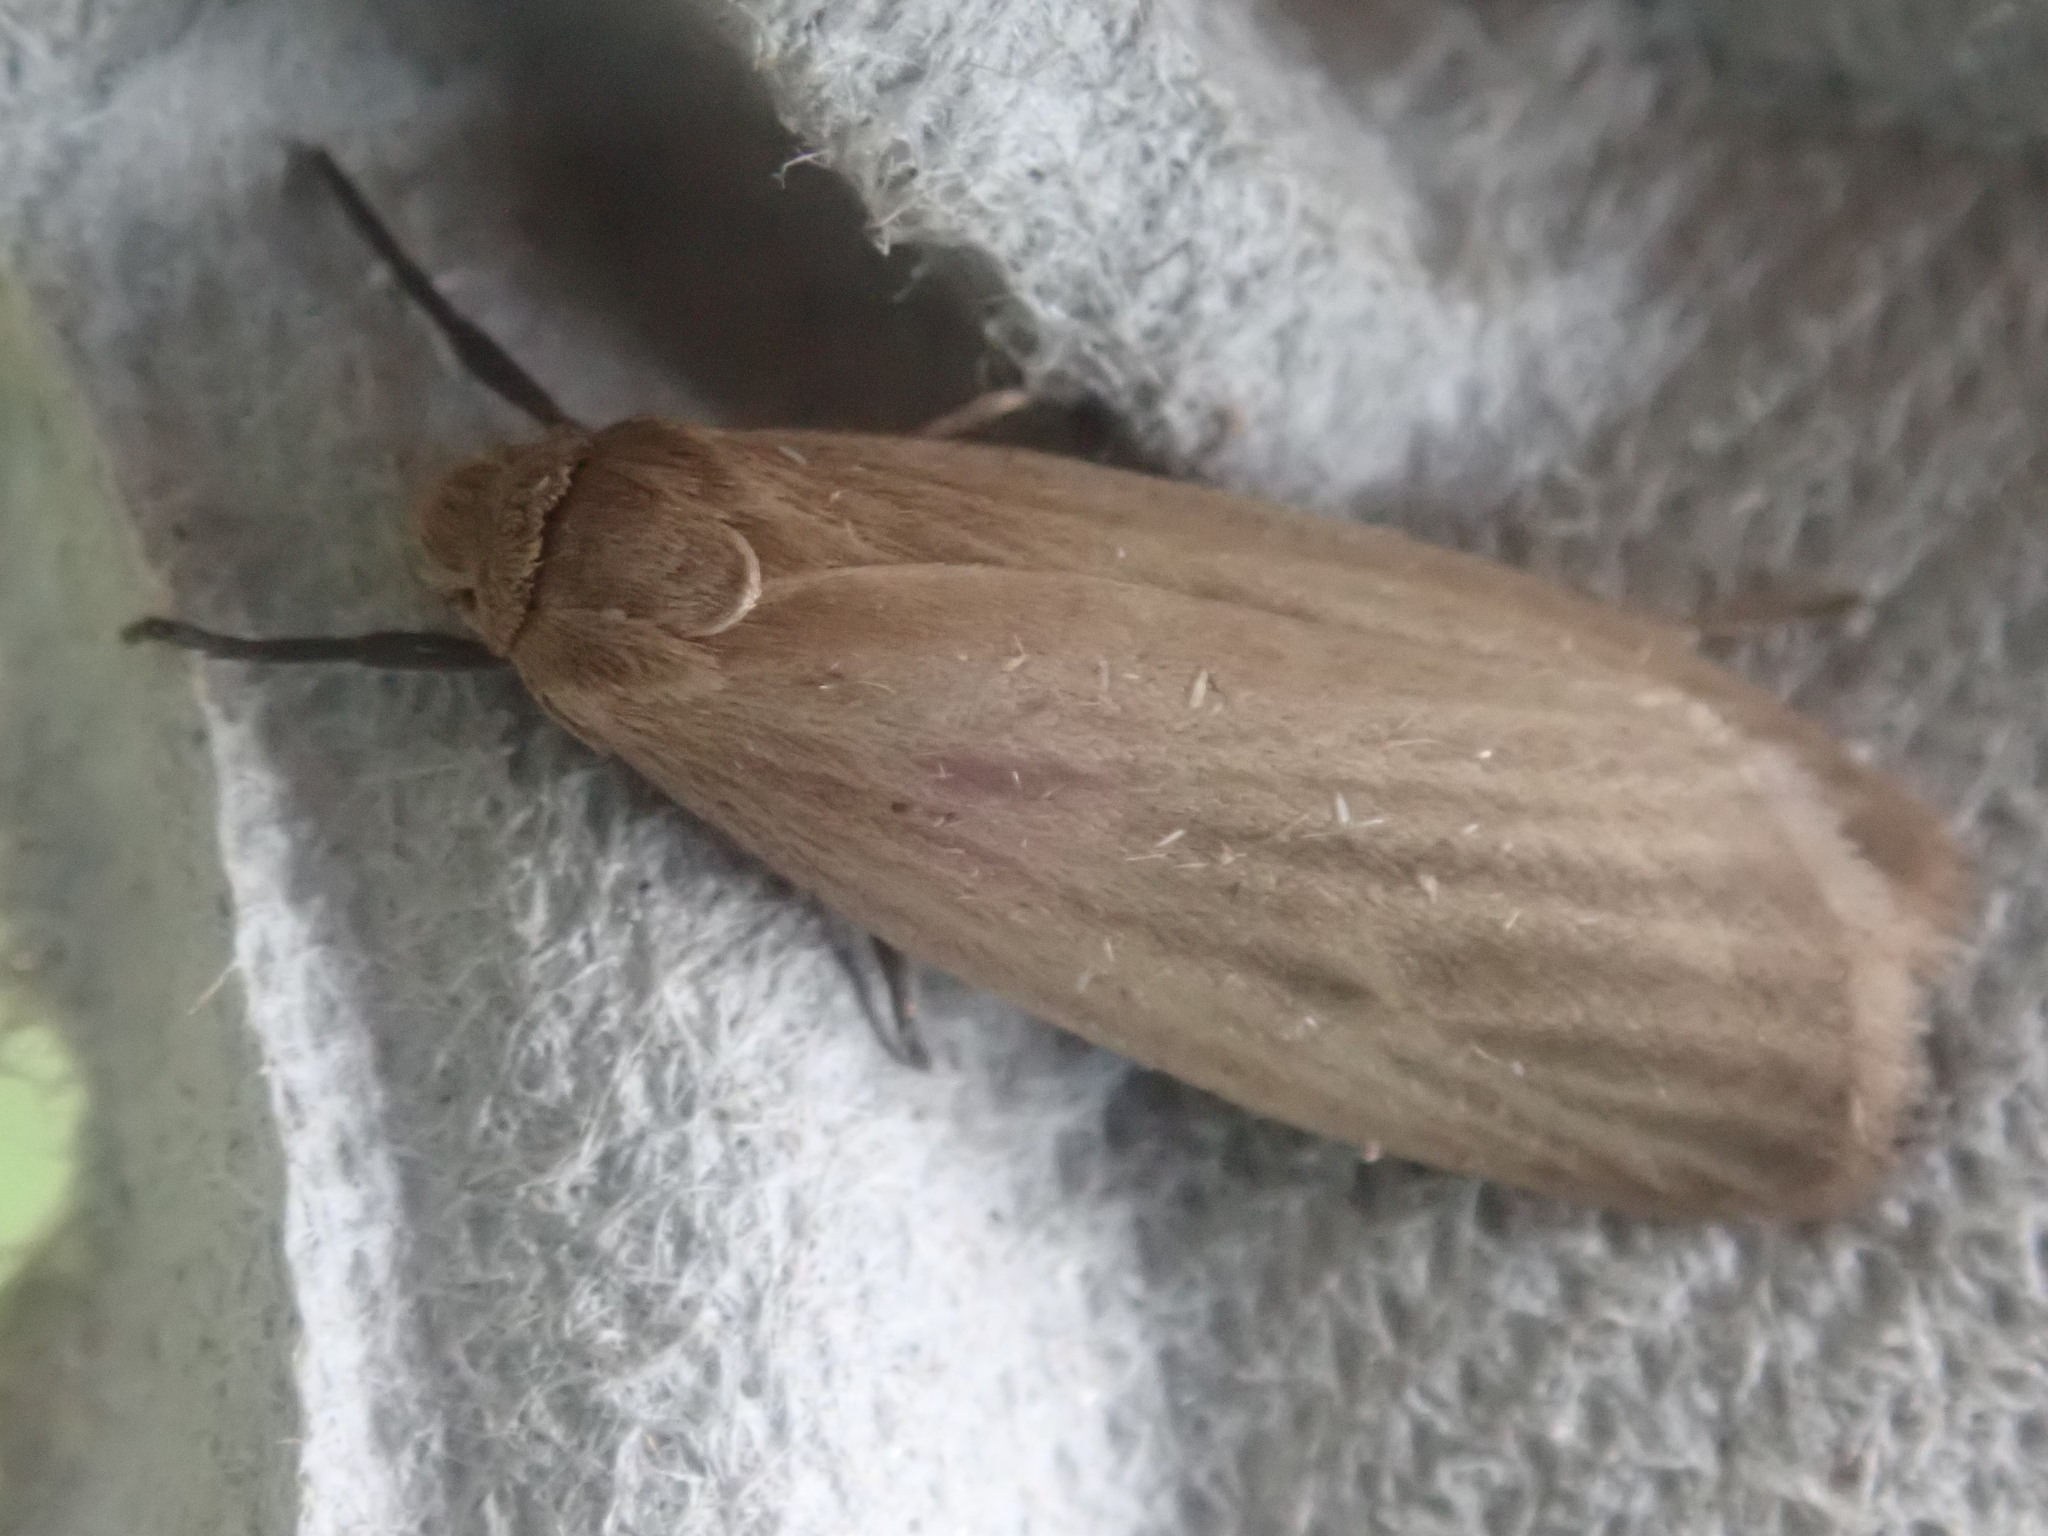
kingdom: Animalia
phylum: Arthropoda
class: Insecta
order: Lepidoptera
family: Erebidae
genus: Crambidia
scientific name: Crambidia pallida
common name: Pale lichen moth
